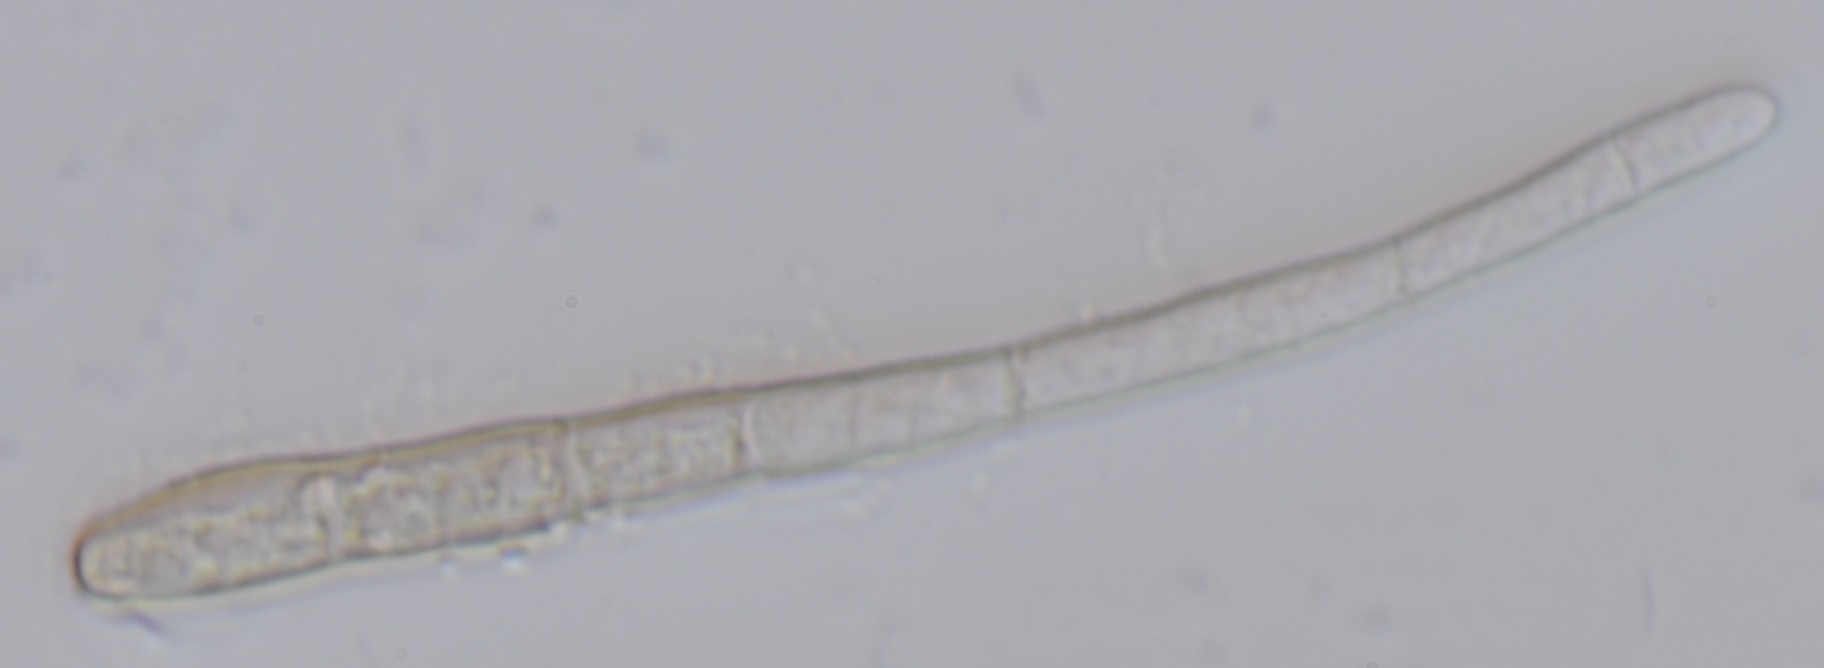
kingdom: Fungi
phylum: Ascomycota
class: Dothideomycetes
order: Pleosporales
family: Pleosporaceae
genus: Alternaria
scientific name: Alternaria longissima
